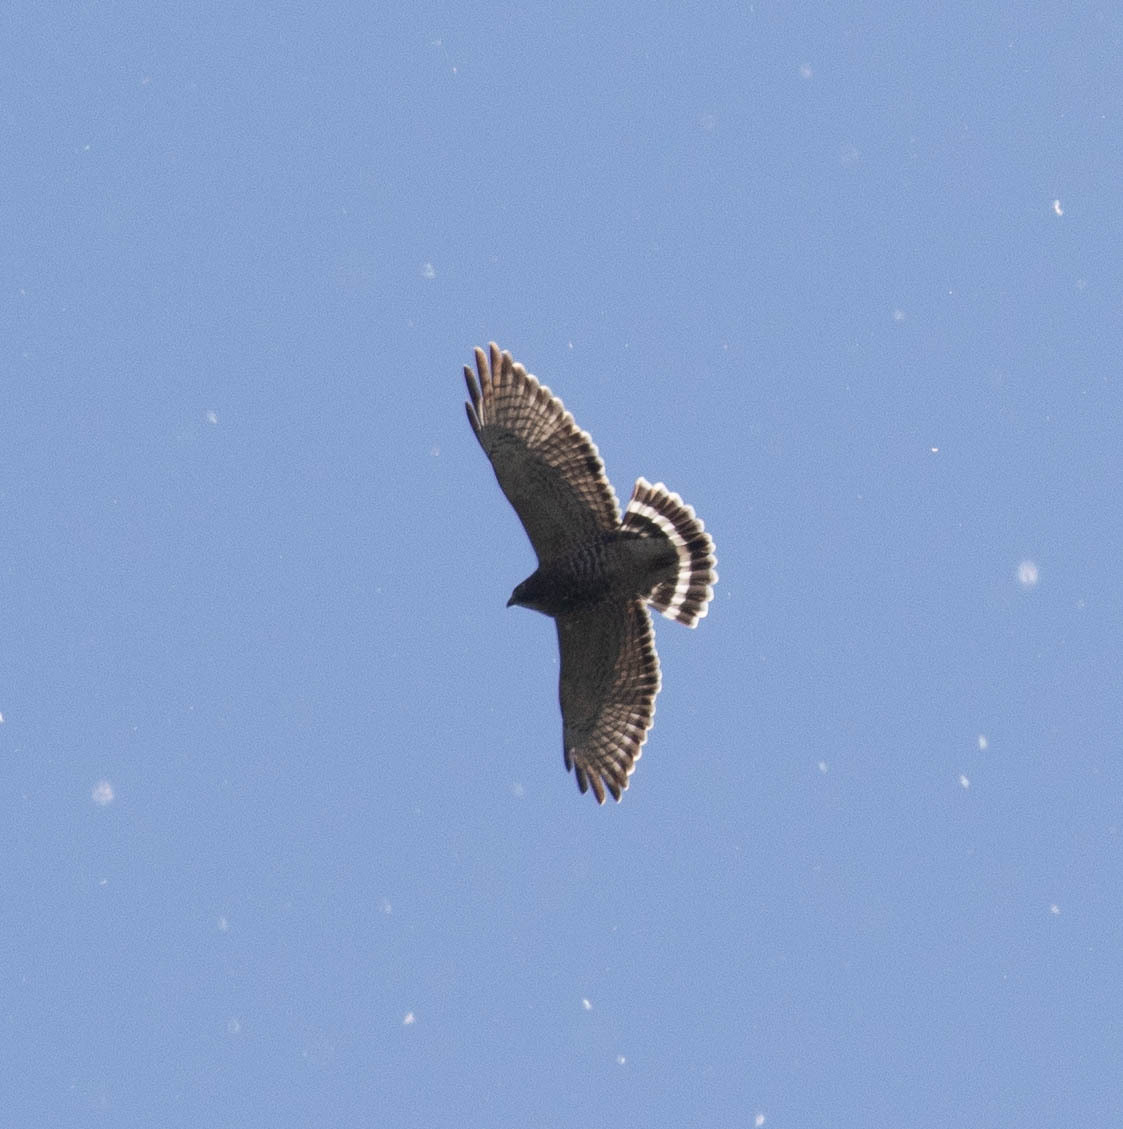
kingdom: Animalia
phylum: Chordata
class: Aves
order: Accipitriformes
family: Accipitridae
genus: Buteo
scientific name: Buteo platypterus
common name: Broad-winged hawk
